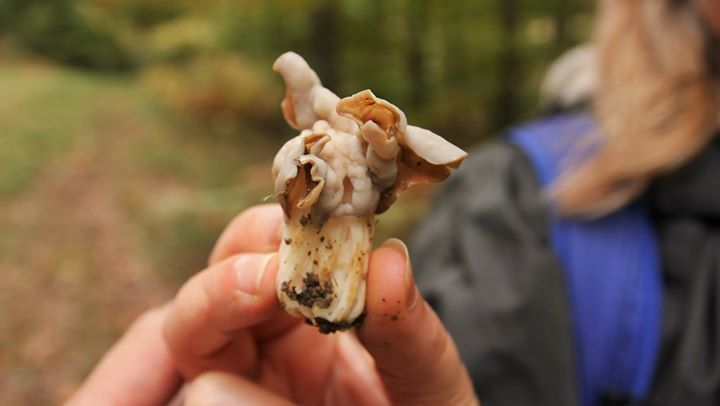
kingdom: Fungi
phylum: Ascomycota
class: Pezizomycetes
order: Pezizales
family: Helvellaceae
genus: Helvella
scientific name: Helvella crispa
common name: White saddle
